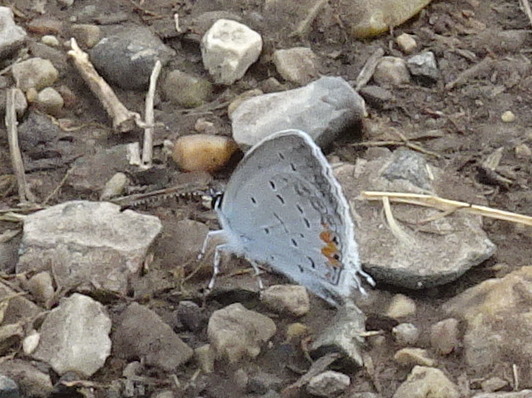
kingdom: Animalia
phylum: Arthropoda
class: Insecta
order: Lepidoptera
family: Lycaenidae
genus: Elkalyce
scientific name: Elkalyce comyntas
